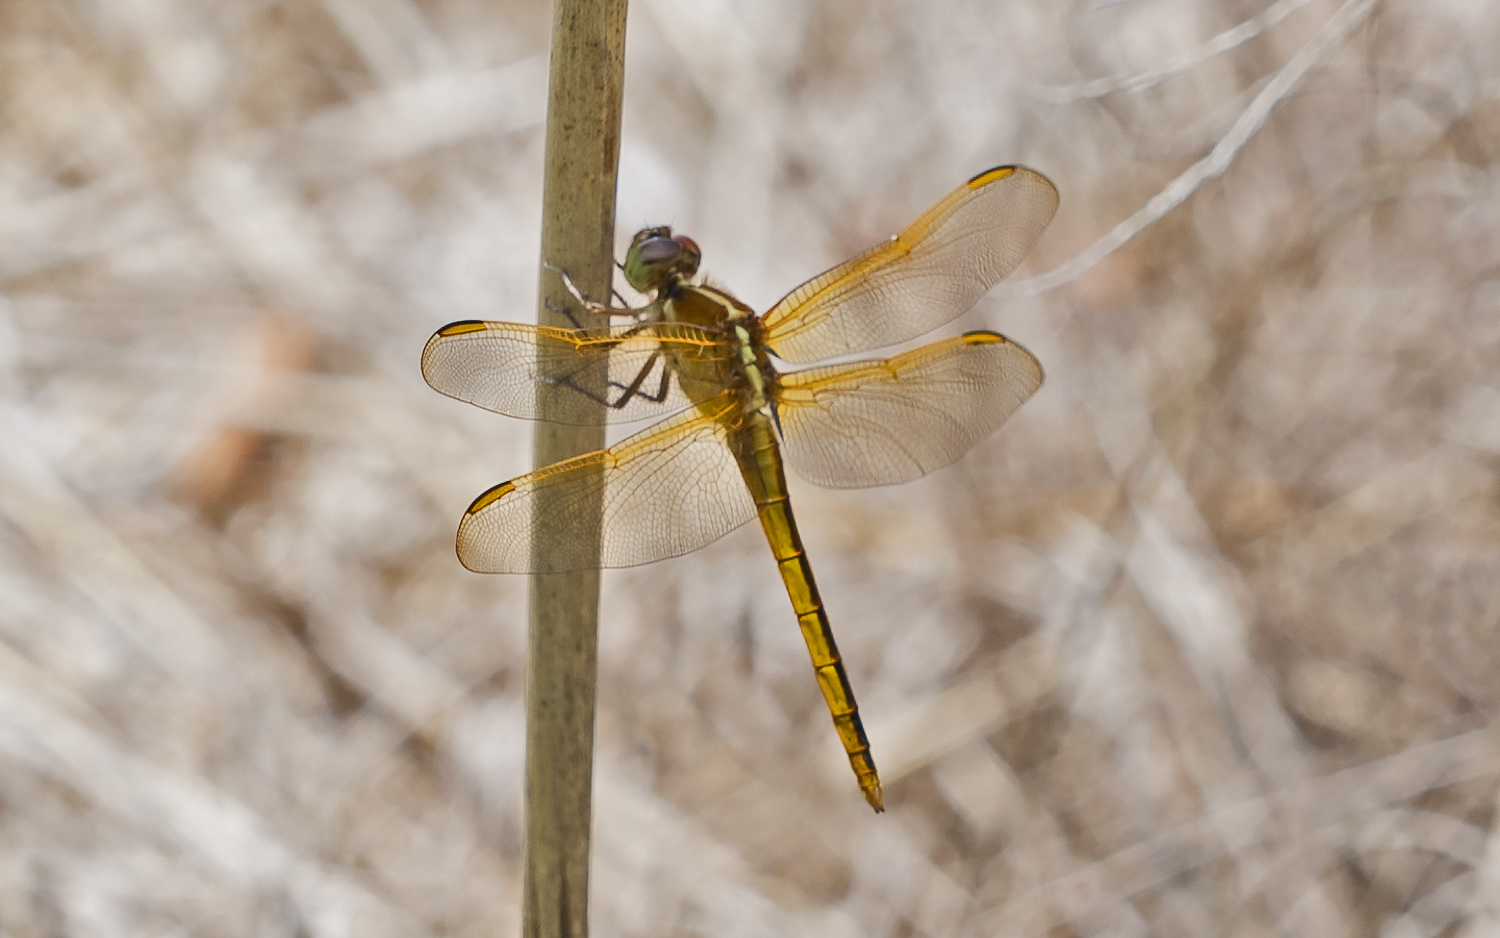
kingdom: Animalia
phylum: Arthropoda
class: Insecta
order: Odonata
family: Libellulidae
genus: Libellula
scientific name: Libellula needhami
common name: Needham's skimmer
